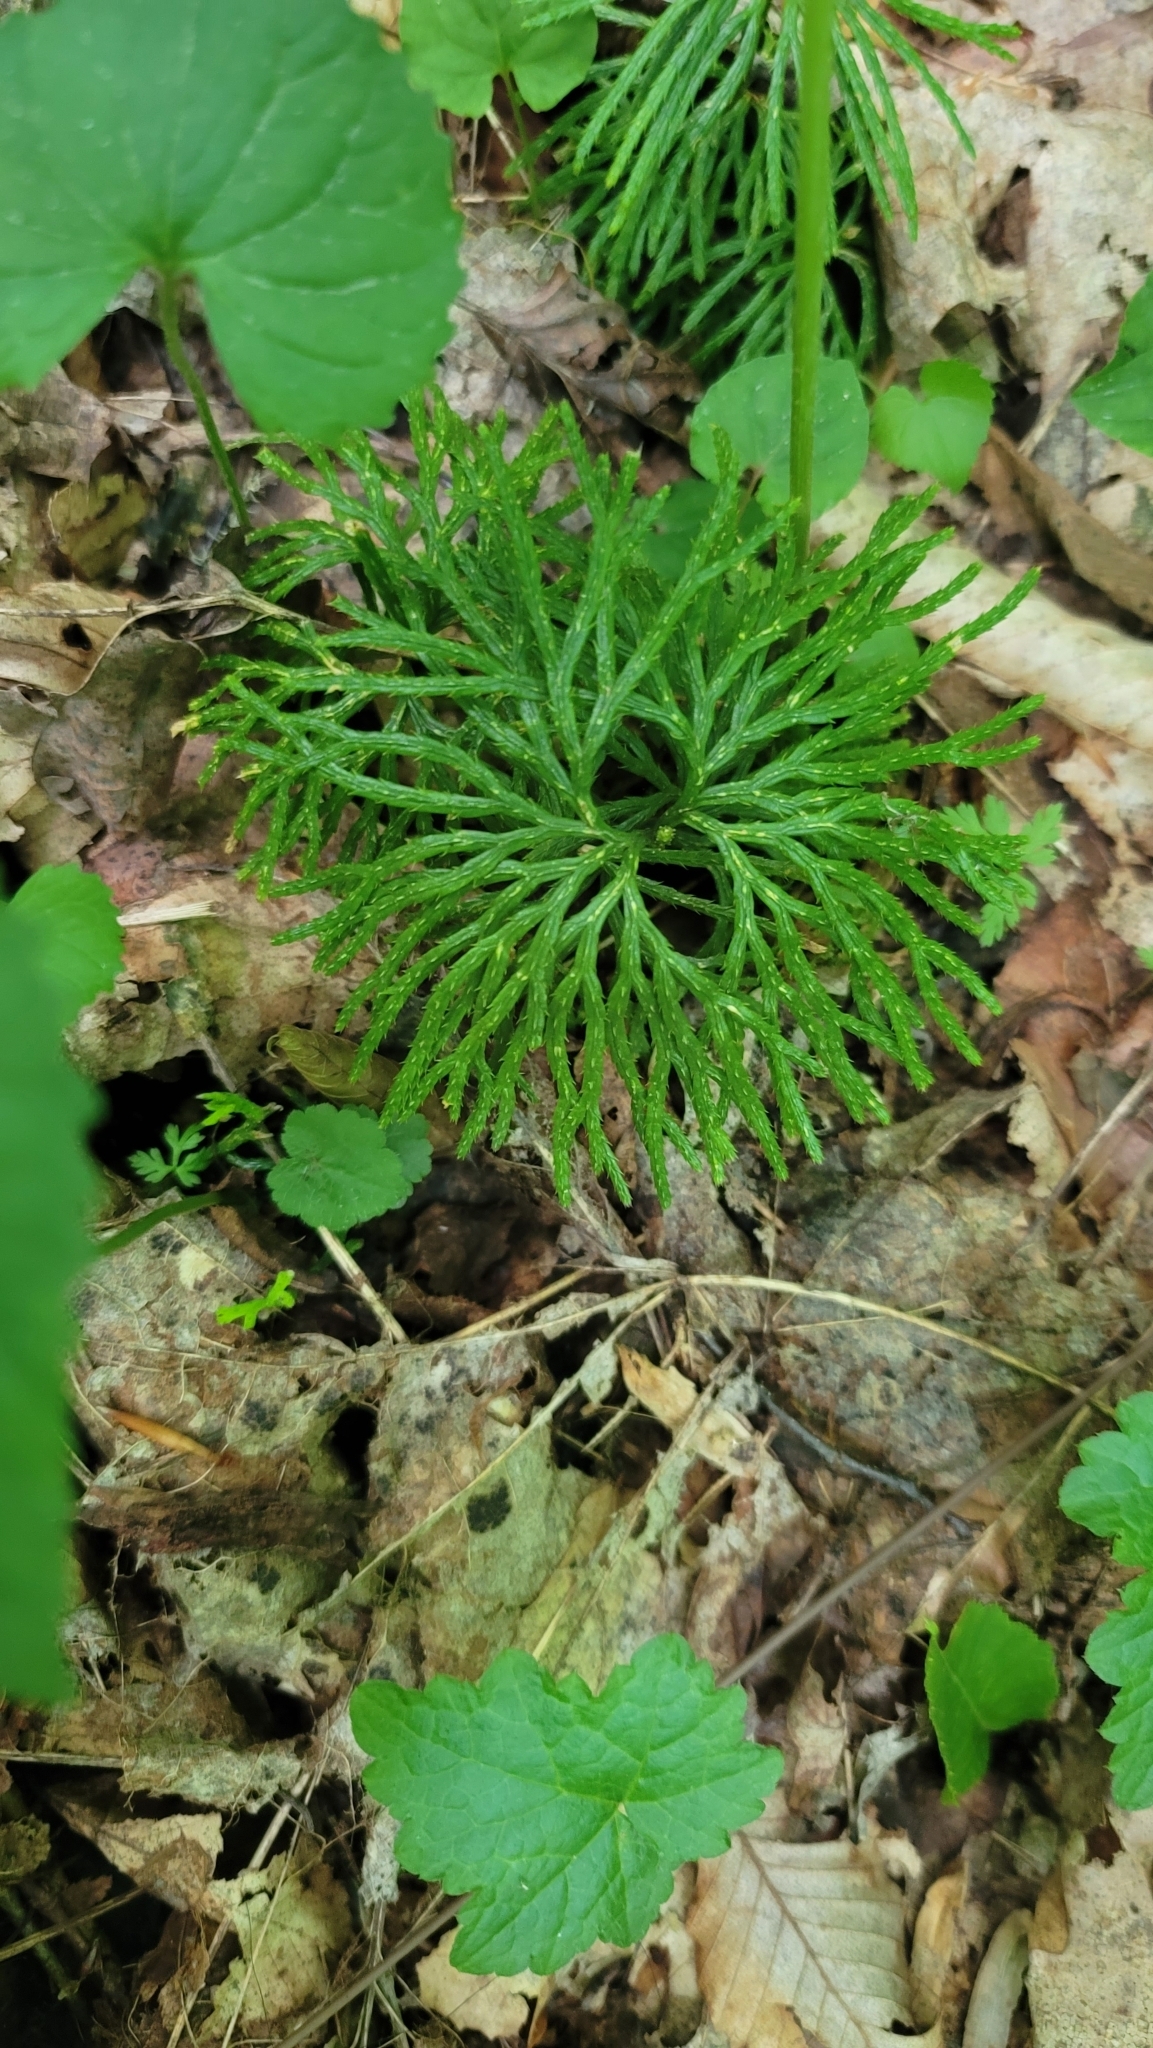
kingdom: Plantae
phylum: Tracheophyta
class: Lycopodiopsida
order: Lycopodiales
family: Lycopodiaceae
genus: Diphasiastrum
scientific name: Diphasiastrum digitatum
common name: Southern running-pine
